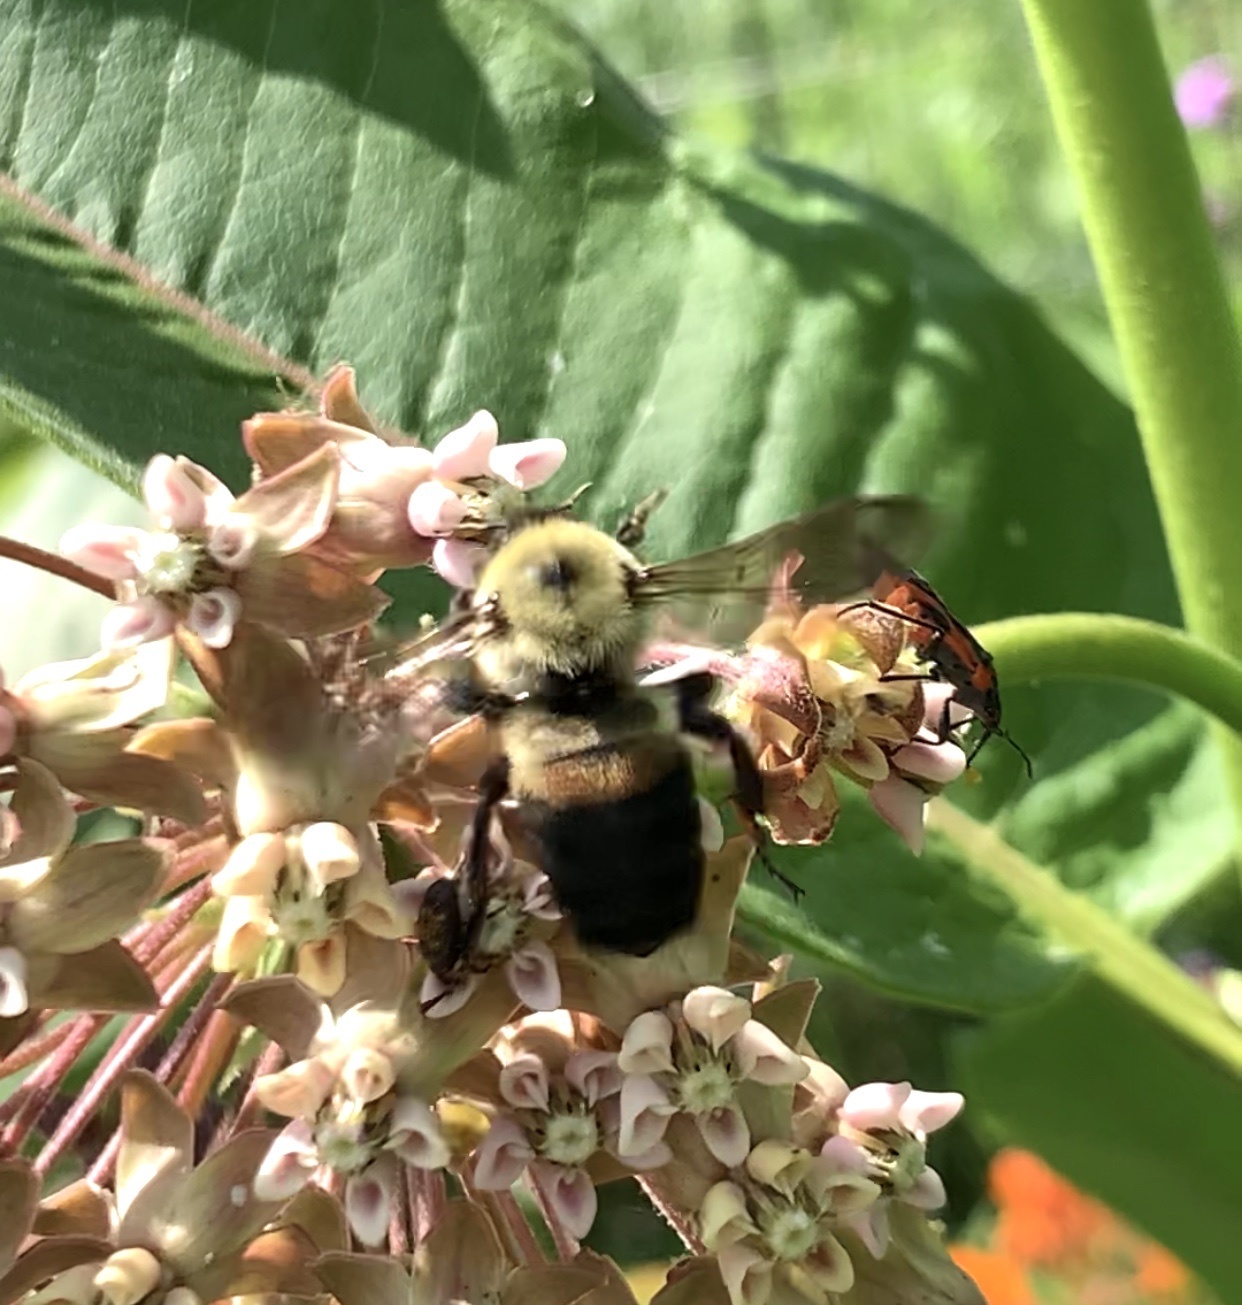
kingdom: Animalia
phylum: Arthropoda
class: Insecta
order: Hymenoptera
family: Apidae
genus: Bombus
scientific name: Bombus griseocollis
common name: Brown-belted bumble bee
